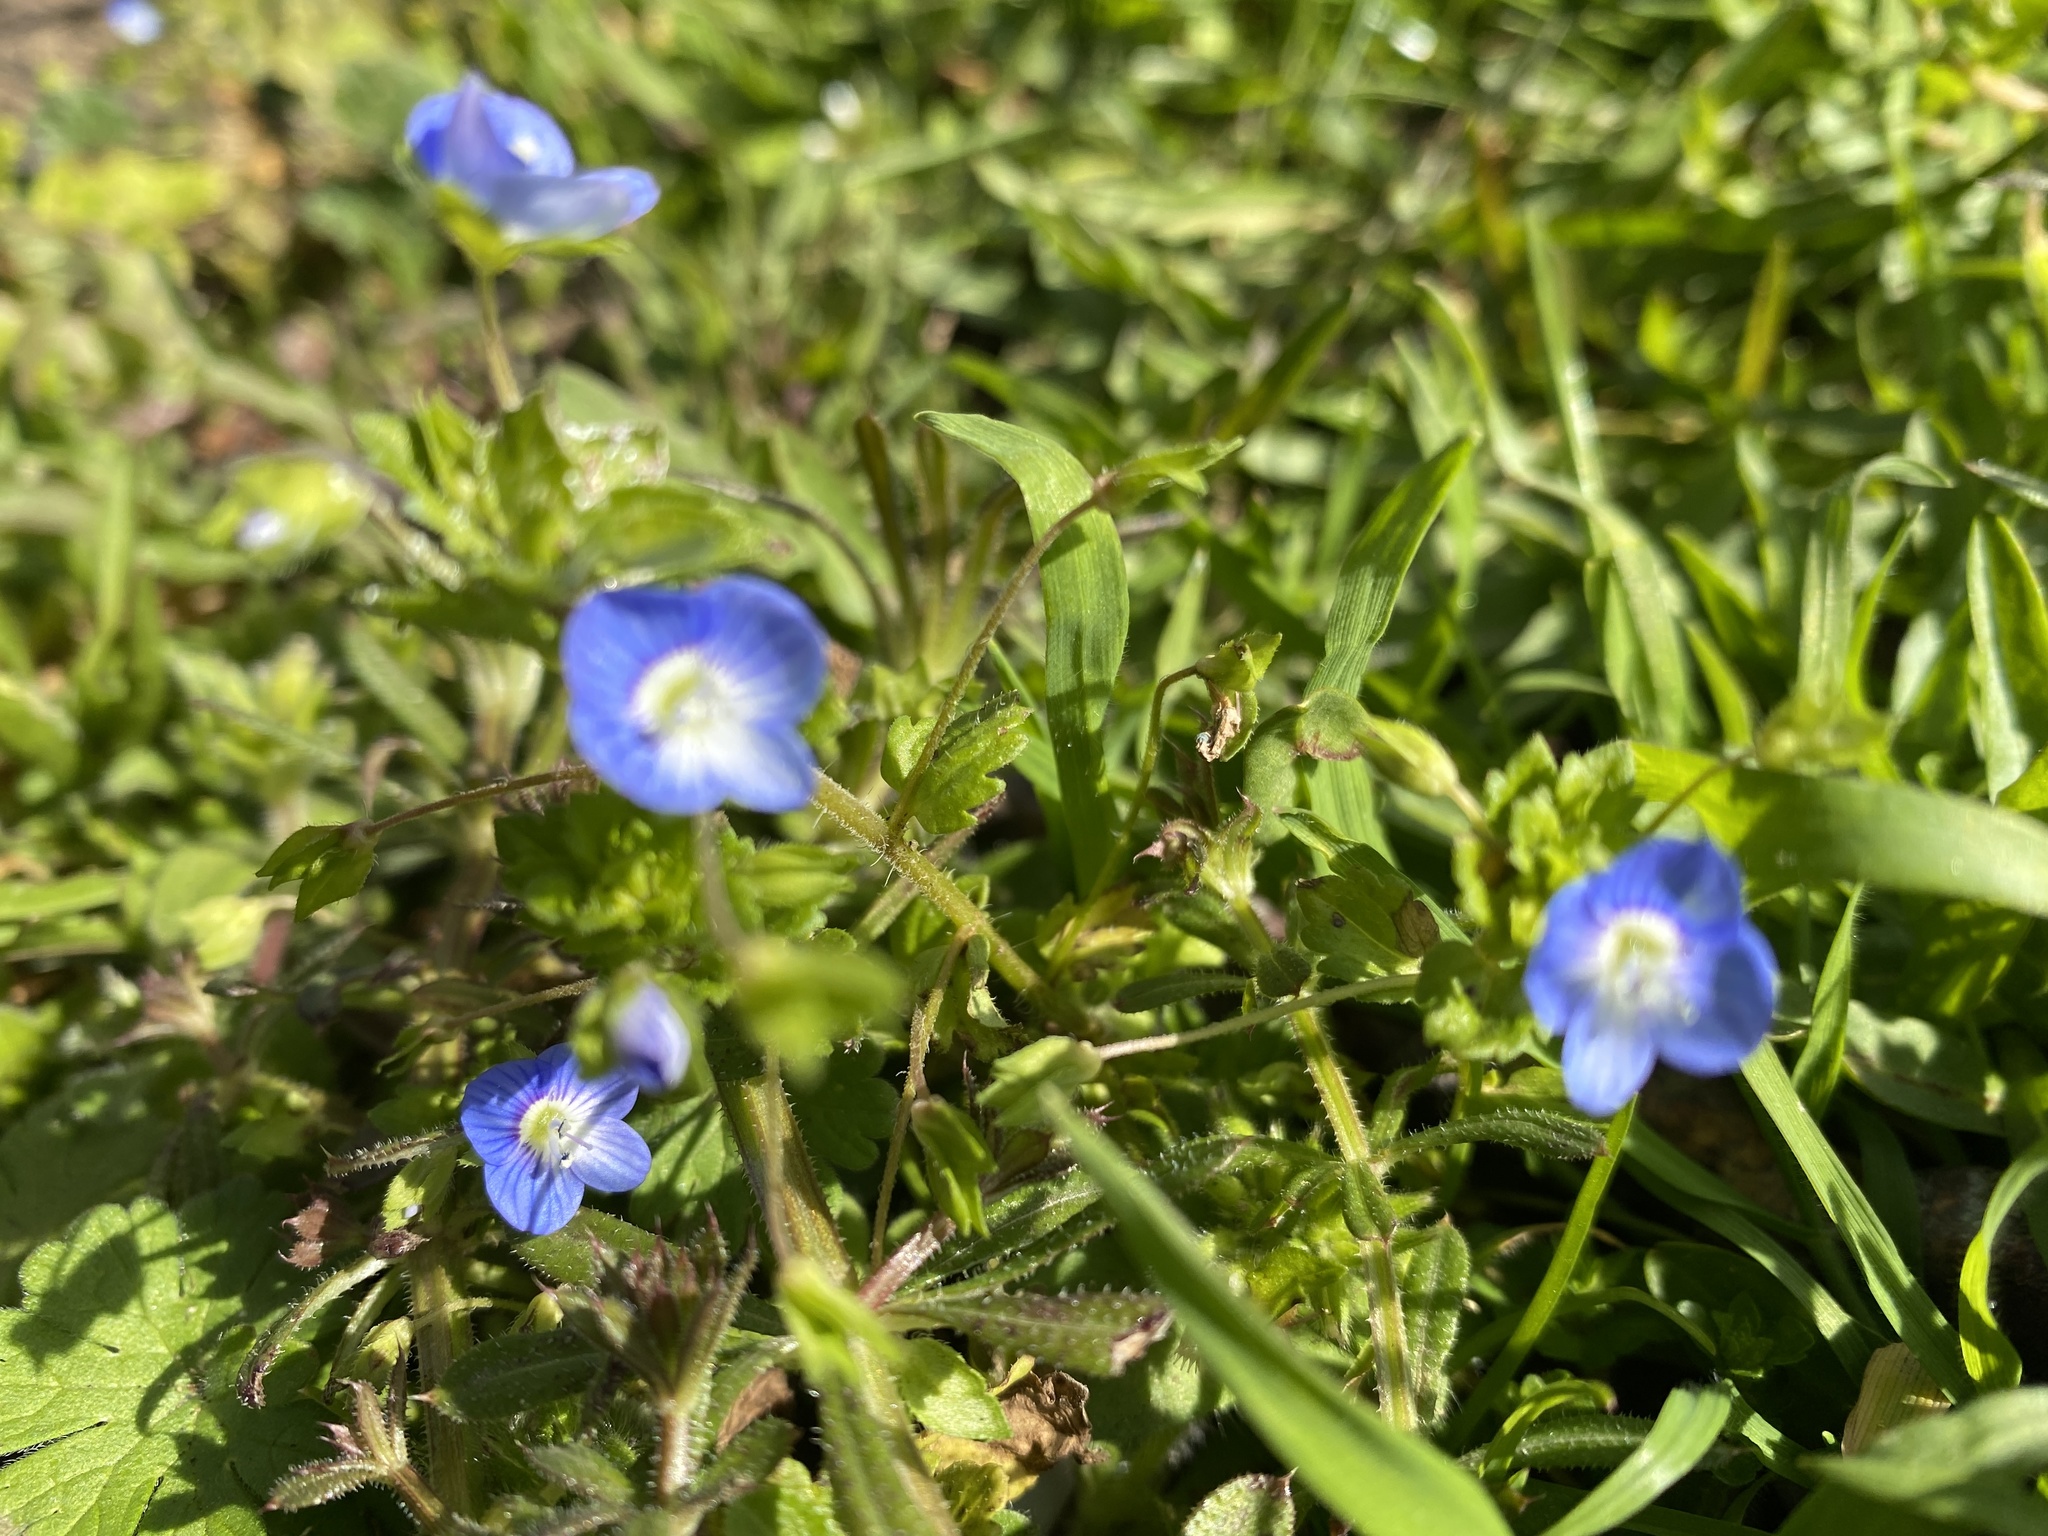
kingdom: Plantae
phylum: Tracheophyta
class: Magnoliopsida
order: Lamiales
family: Plantaginaceae
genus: Veronica
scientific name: Veronica persica
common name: Common field-speedwell
